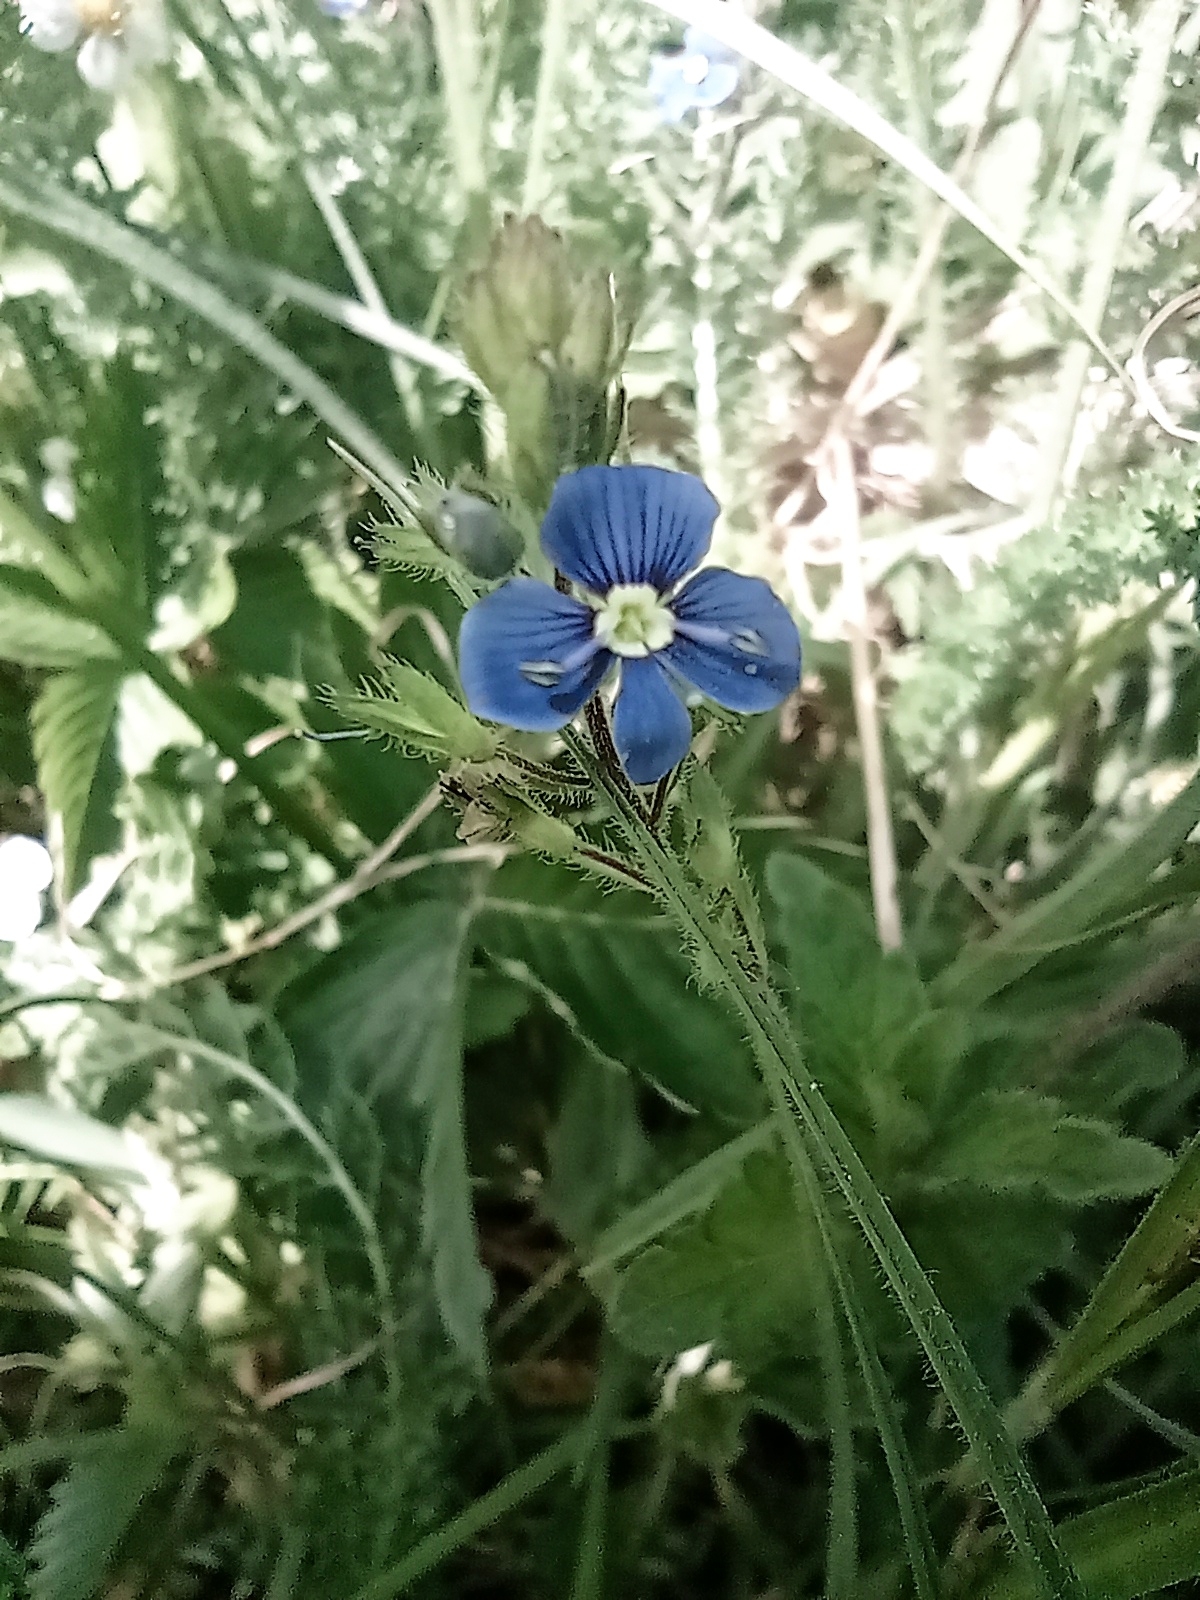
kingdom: Plantae
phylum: Tracheophyta
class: Magnoliopsida
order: Lamiales
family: Plantaginaceae
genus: Veronica
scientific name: Veronica chamaedrys
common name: Germander speedwell
